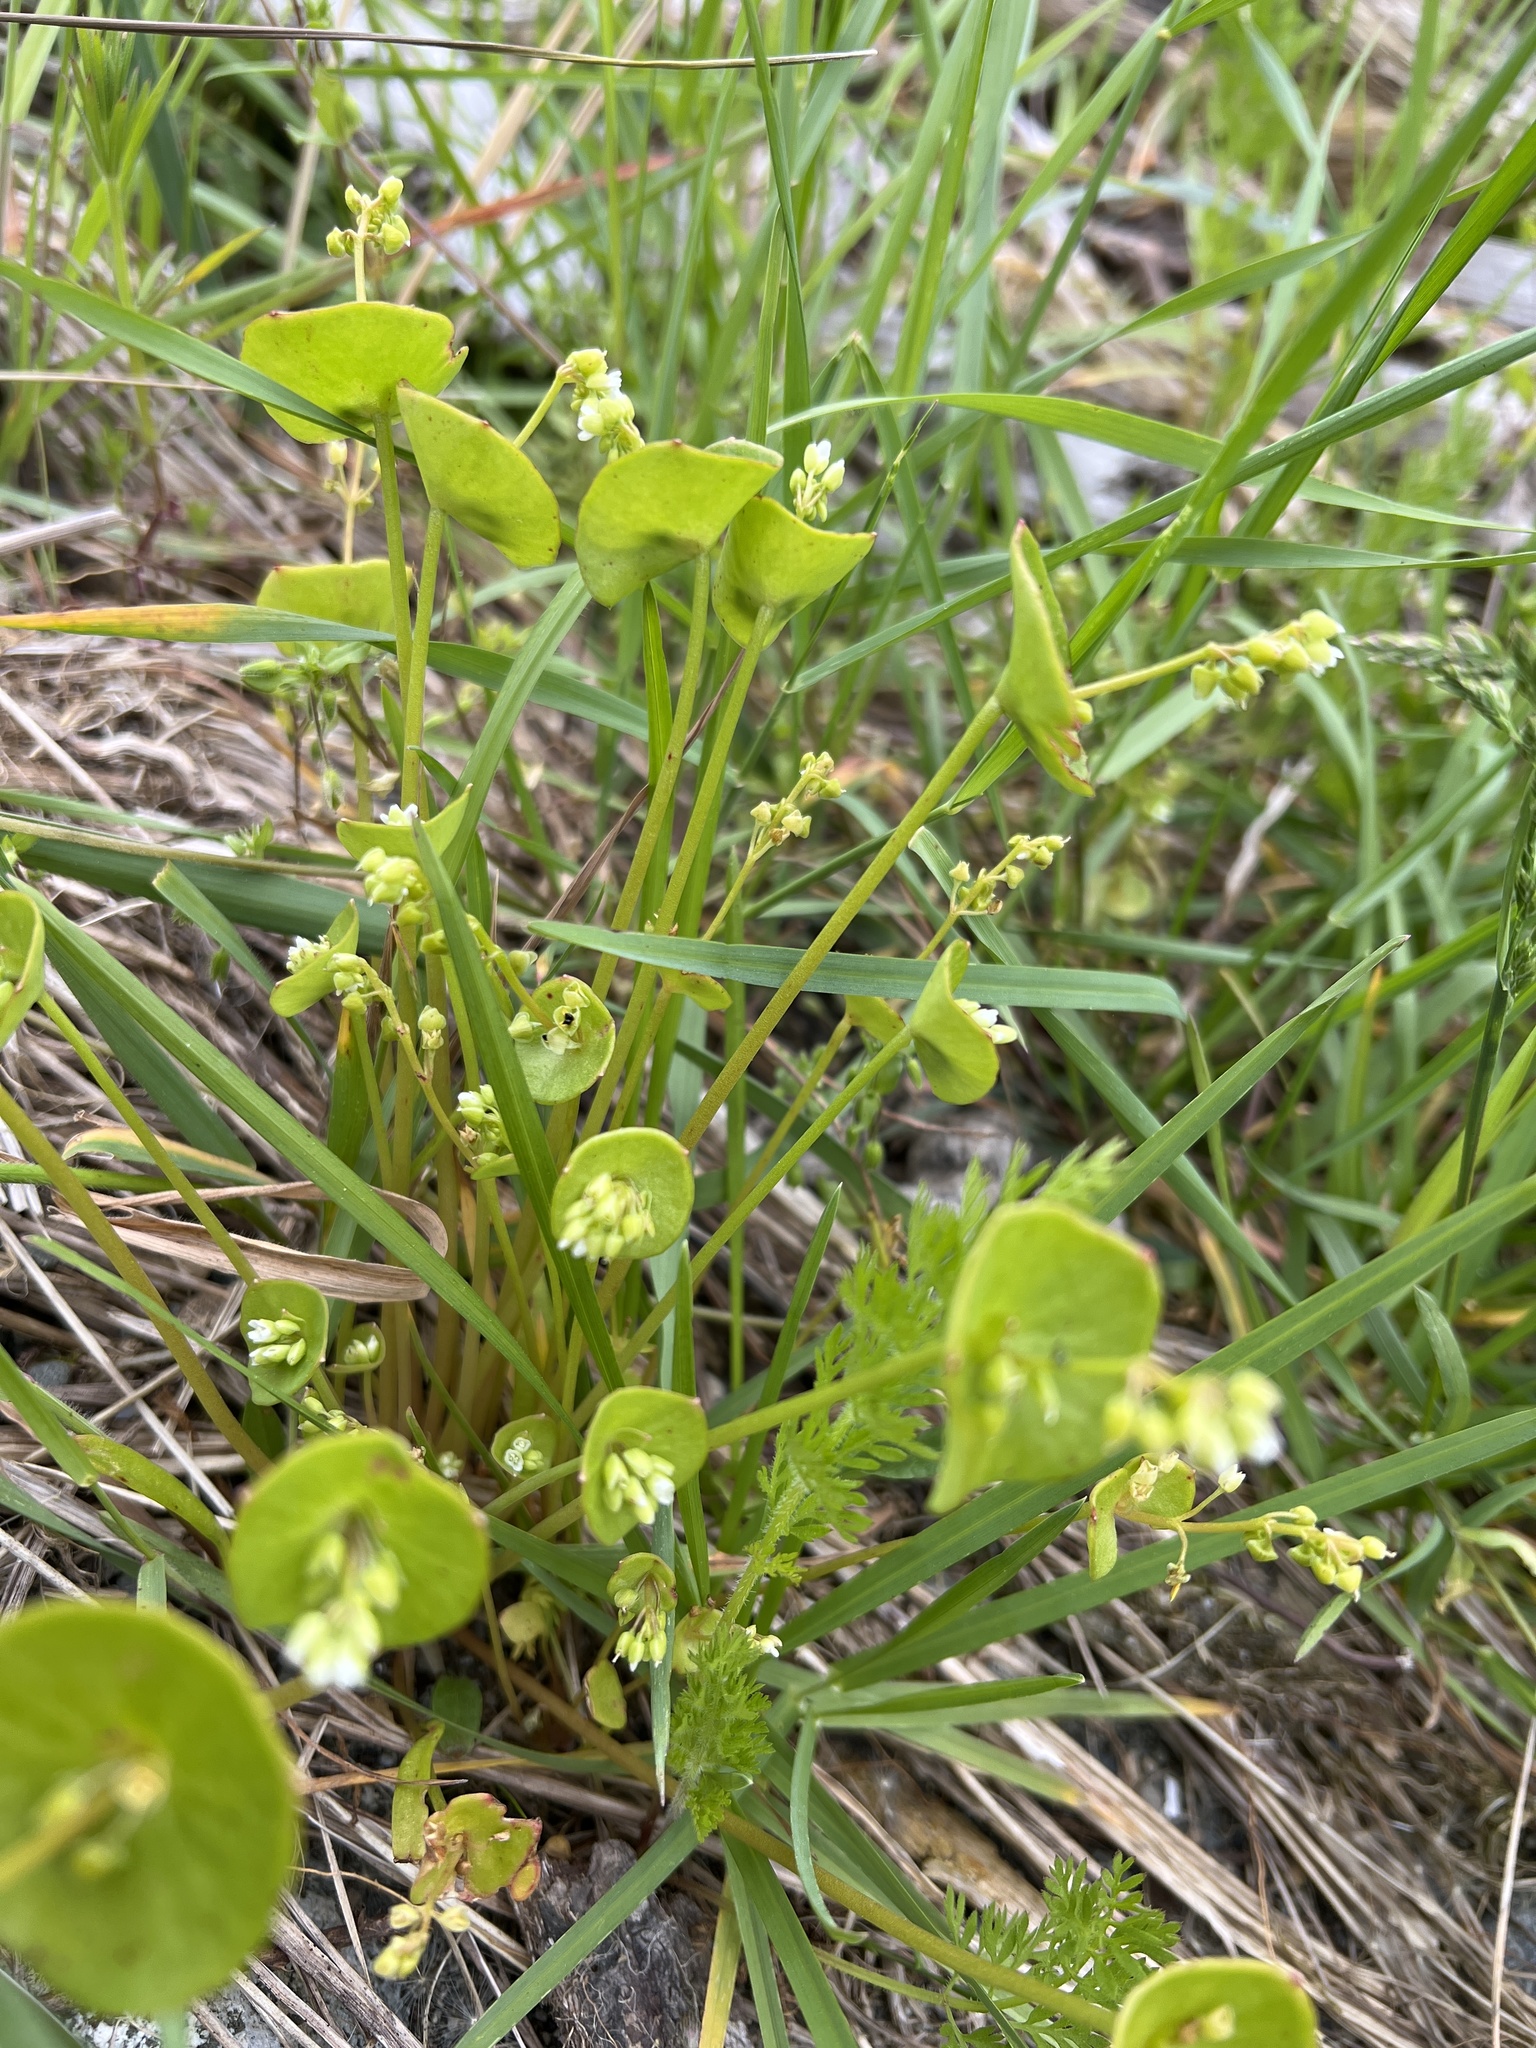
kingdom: Plantae
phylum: Tracheophyta
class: Magnoliopsida
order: Caryophyllales
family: Montiaceae
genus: Claytonia
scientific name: Claytonia perfoliata
